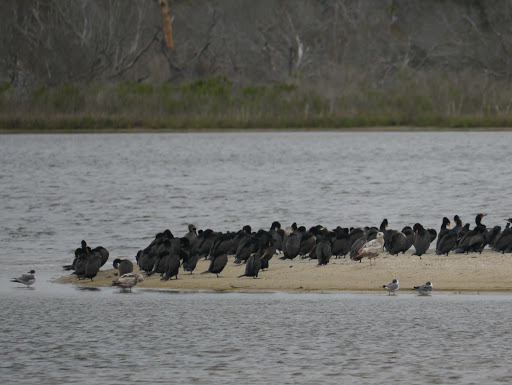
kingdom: Animalia
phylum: Chordata
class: Aves
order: Suliformes
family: Phalacrocoracidae
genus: Phalacrocorax
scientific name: Phalacrocorax auritus
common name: Double-crested cormorant
